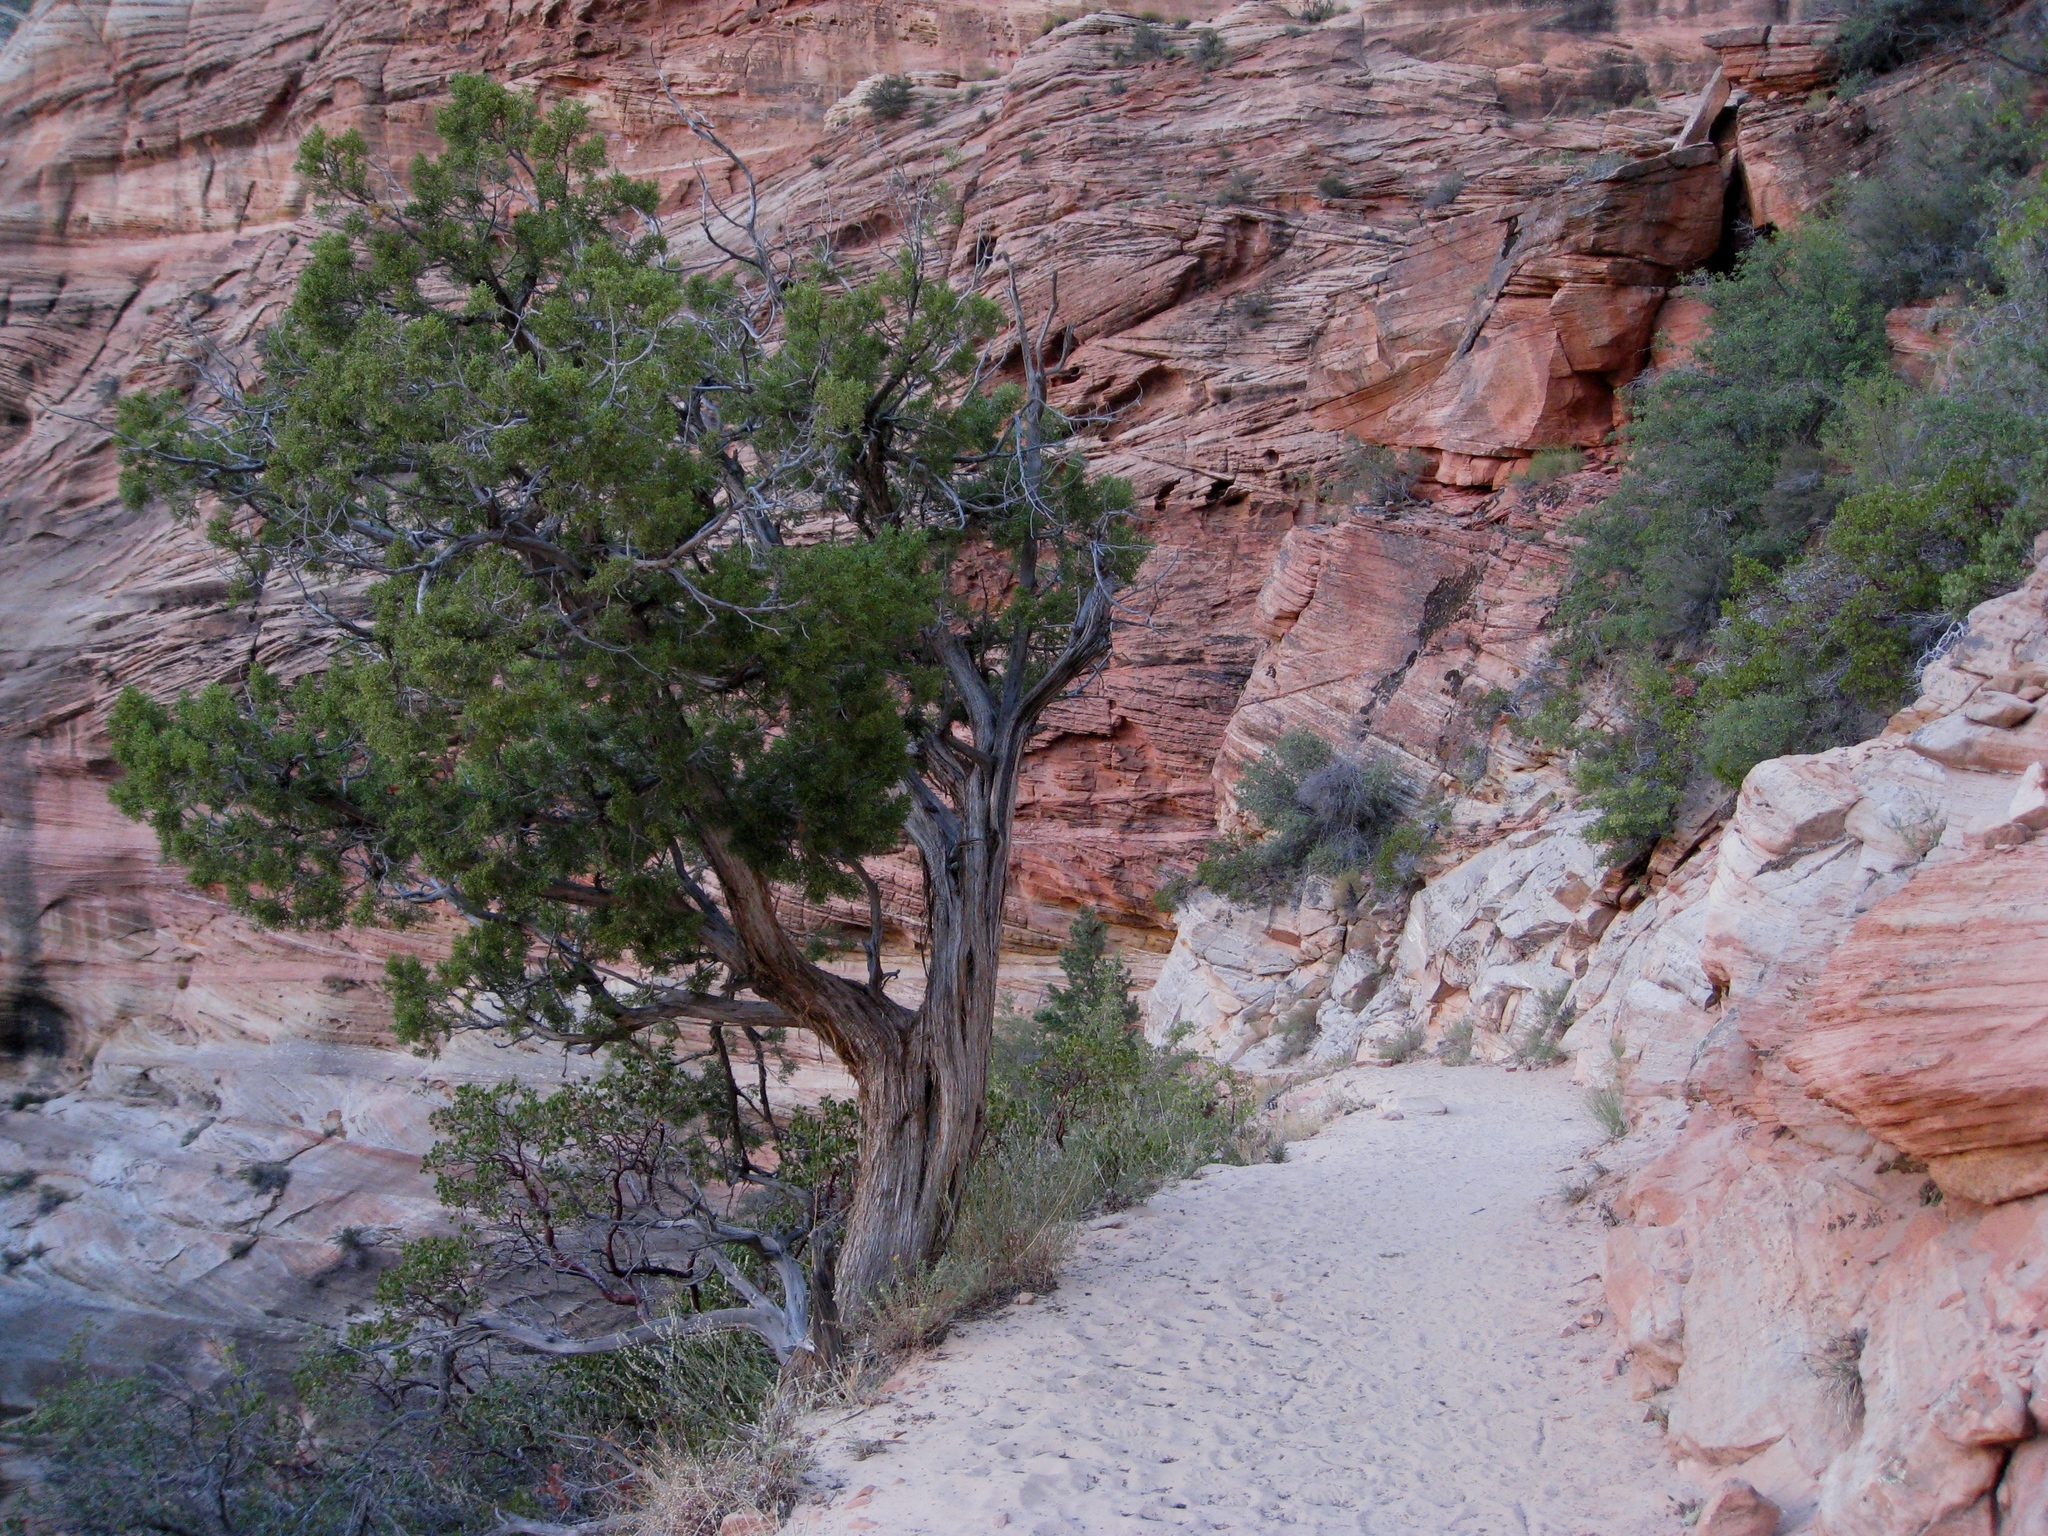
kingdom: Plantae
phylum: Tracheophyta
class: Pinopsida
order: Pinales
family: Cupressaceae
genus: Juniperus
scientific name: Juniperus osteosperma
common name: Utah juniper
